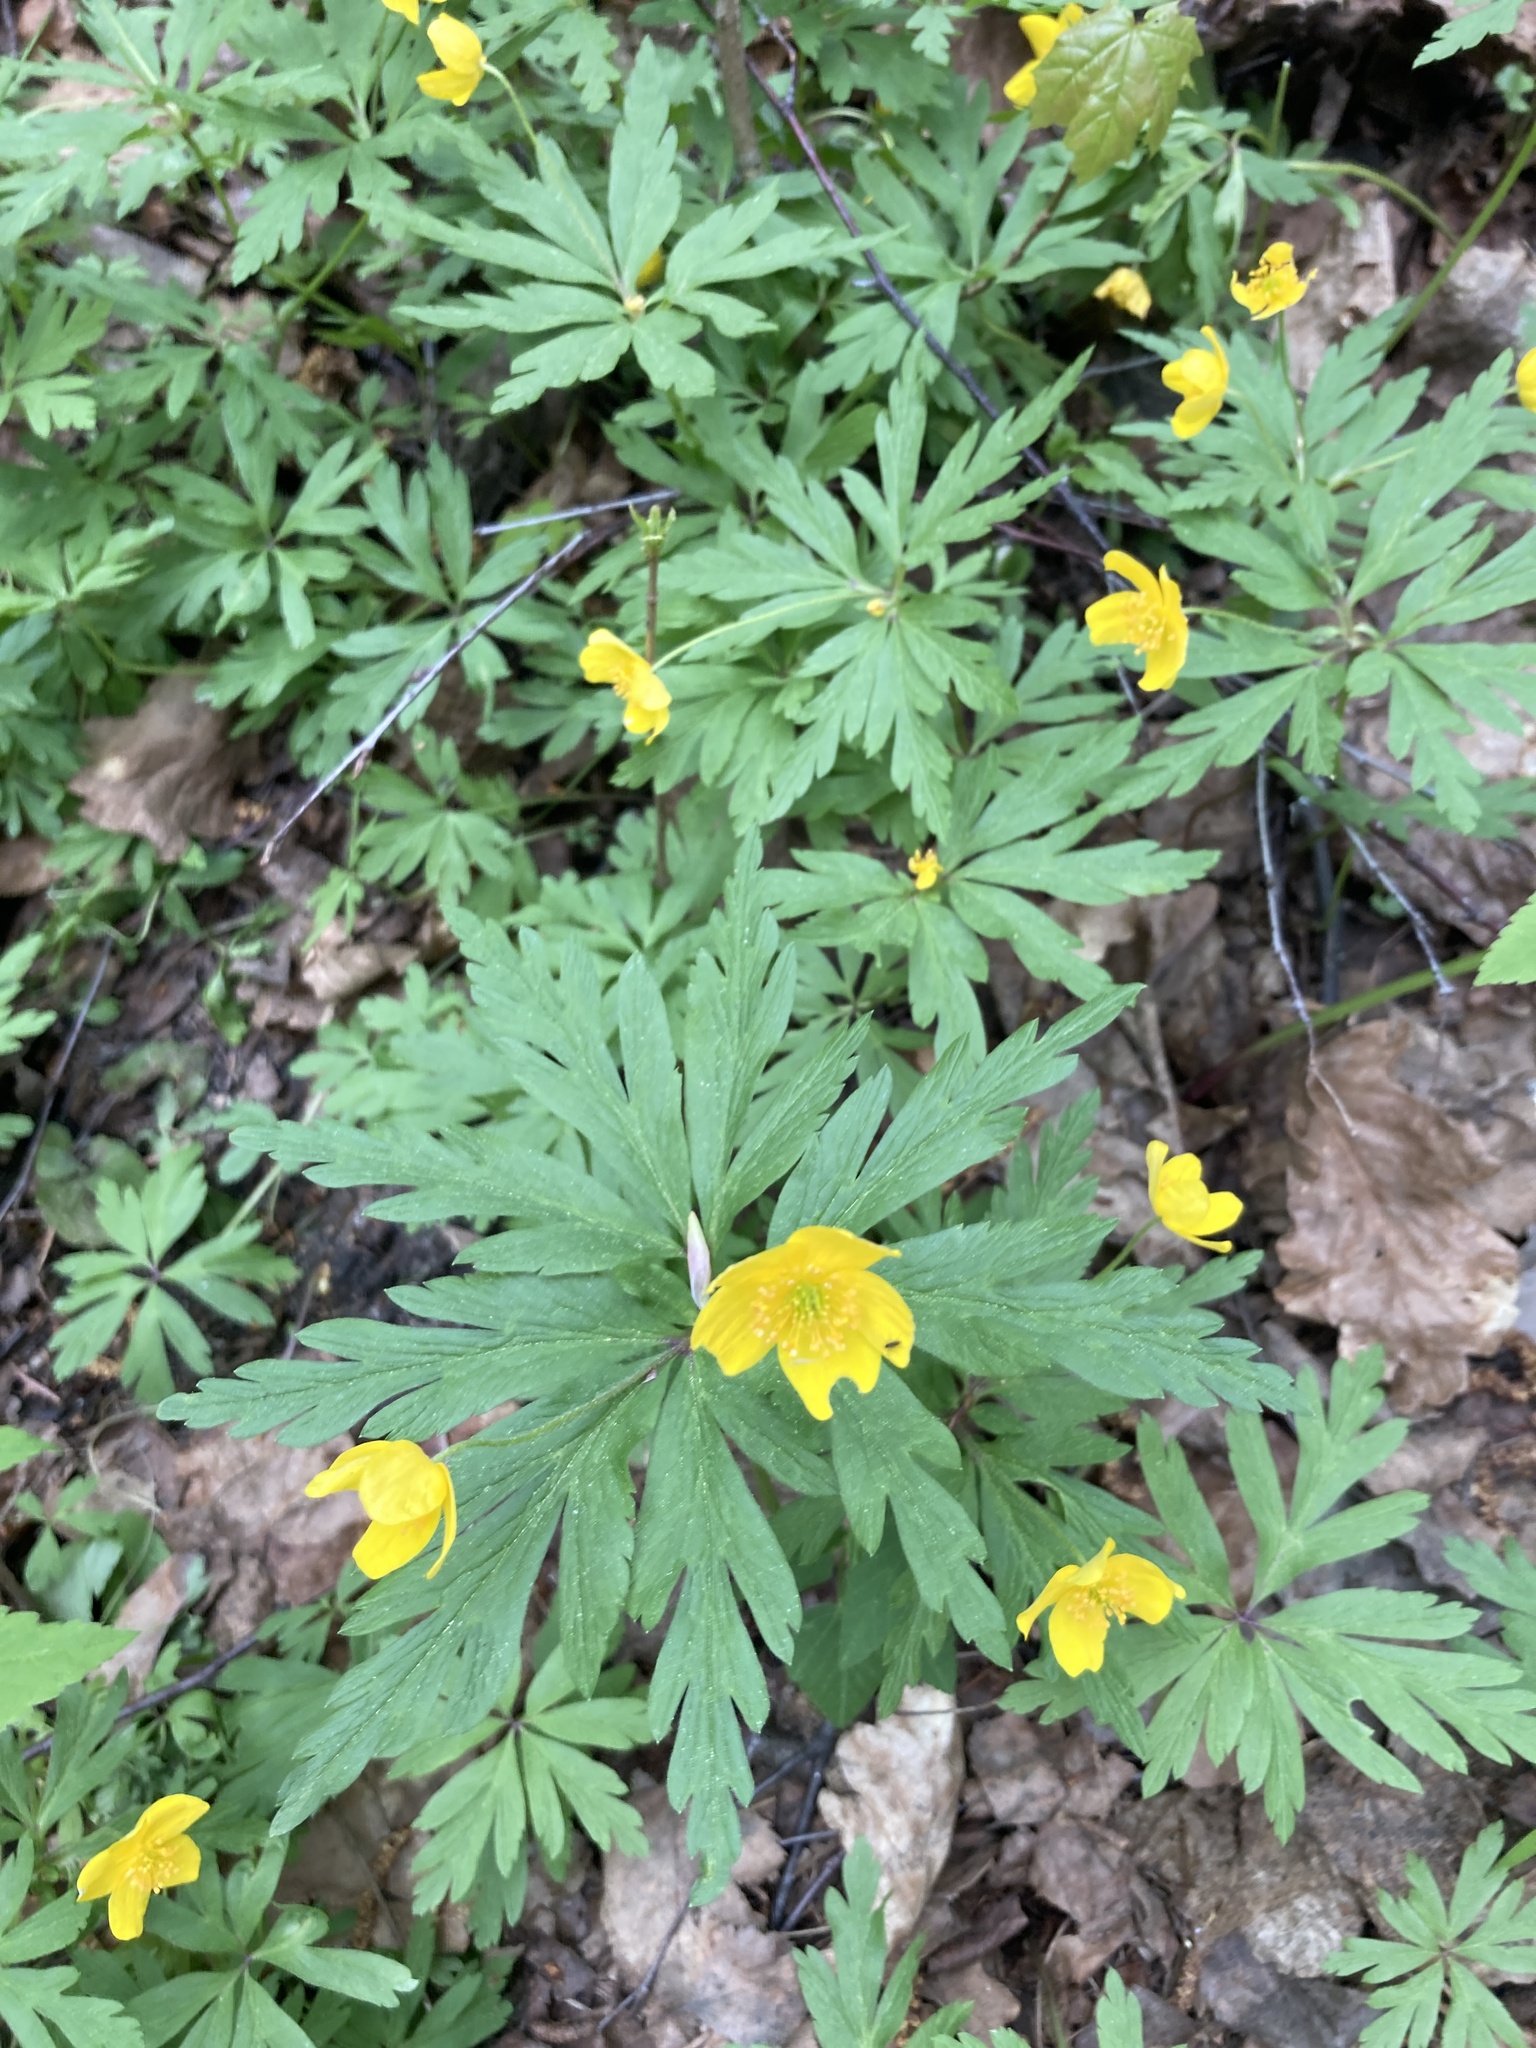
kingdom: Plantae
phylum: Tracheophyta
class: Magnoliopsida
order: Ranunculales
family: Ranunculaceae
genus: Anemone
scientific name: Anemone ranunculoides
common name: Yellow anemone
